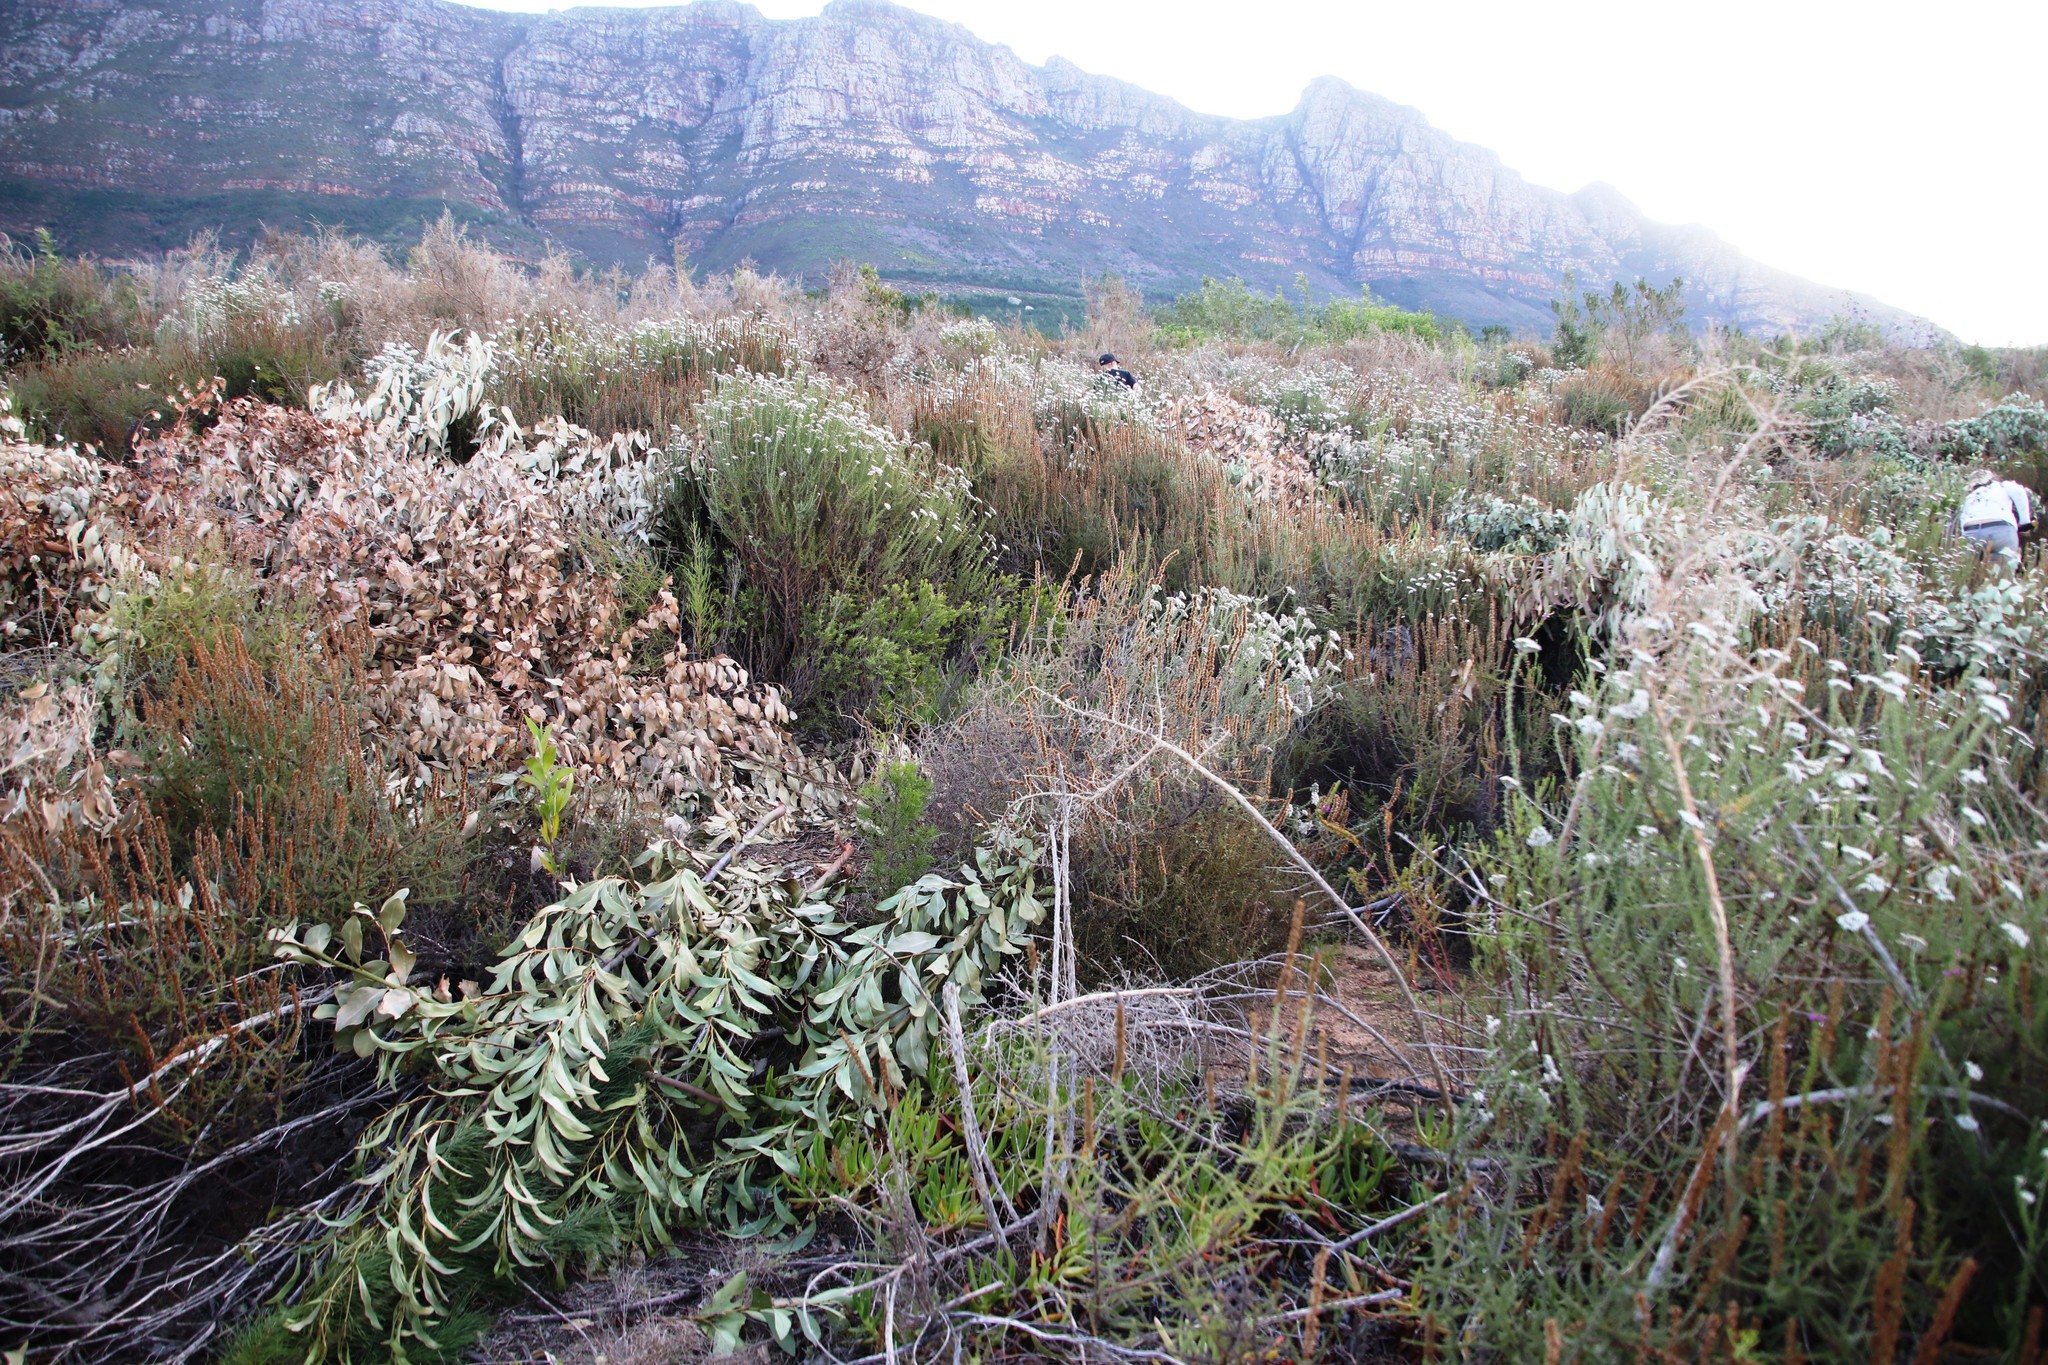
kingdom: Plantae
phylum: Tracheophyta
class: Magnoliopsida
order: Asterales
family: Asteraceae
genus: Seriphium
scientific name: Seriphium cinereum
